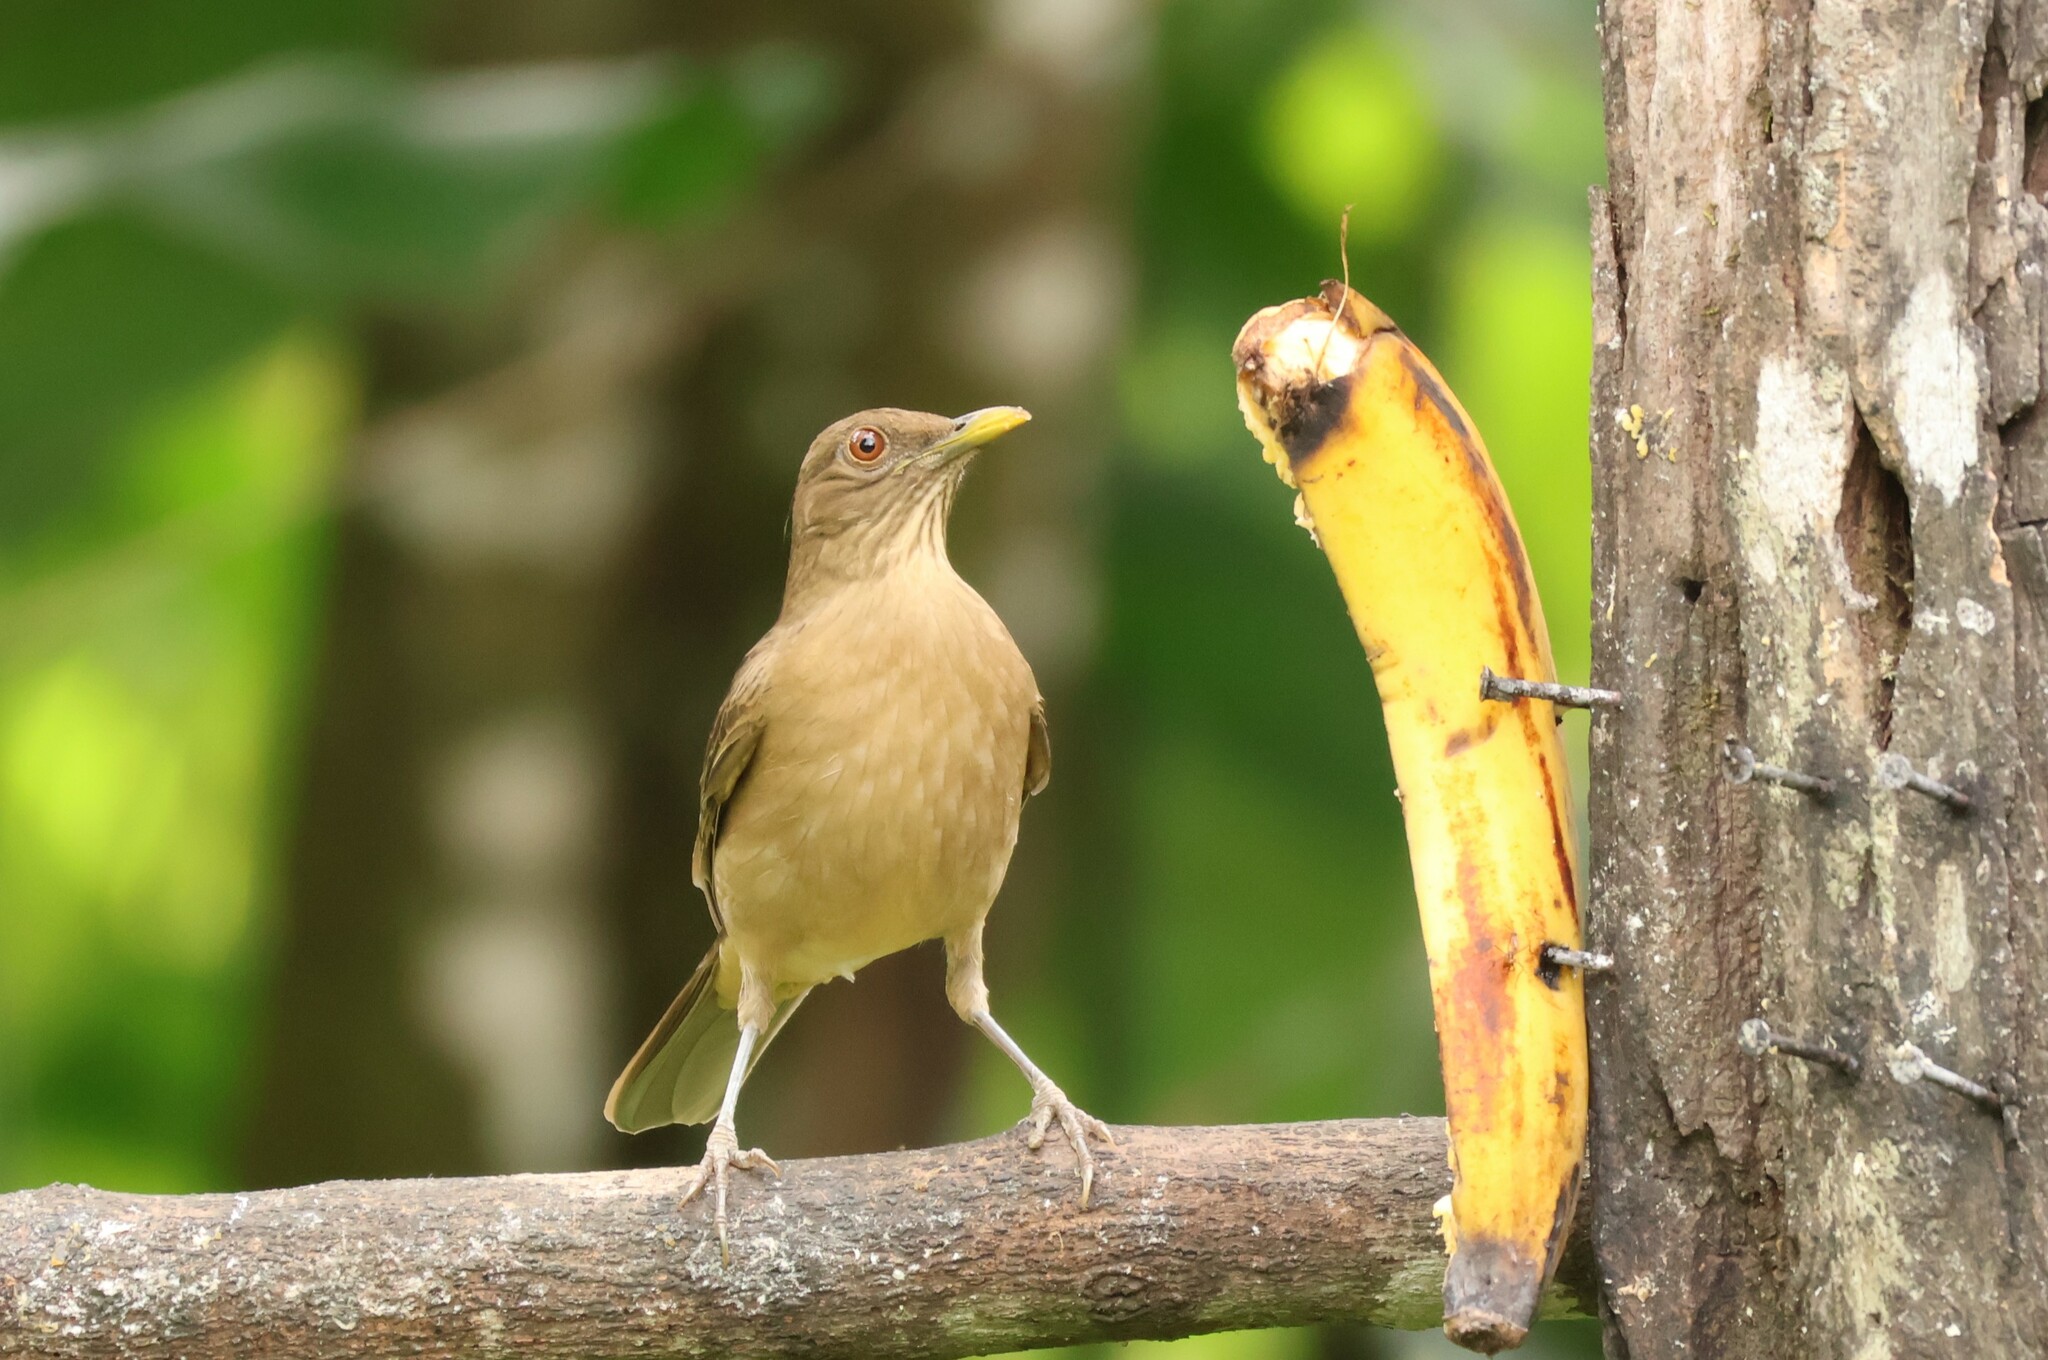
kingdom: Animalia
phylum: Chordata
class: Aves
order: Passeriformes
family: Turdidae
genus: Turdus
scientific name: Turdus grayi
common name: Clay-colored thrush
